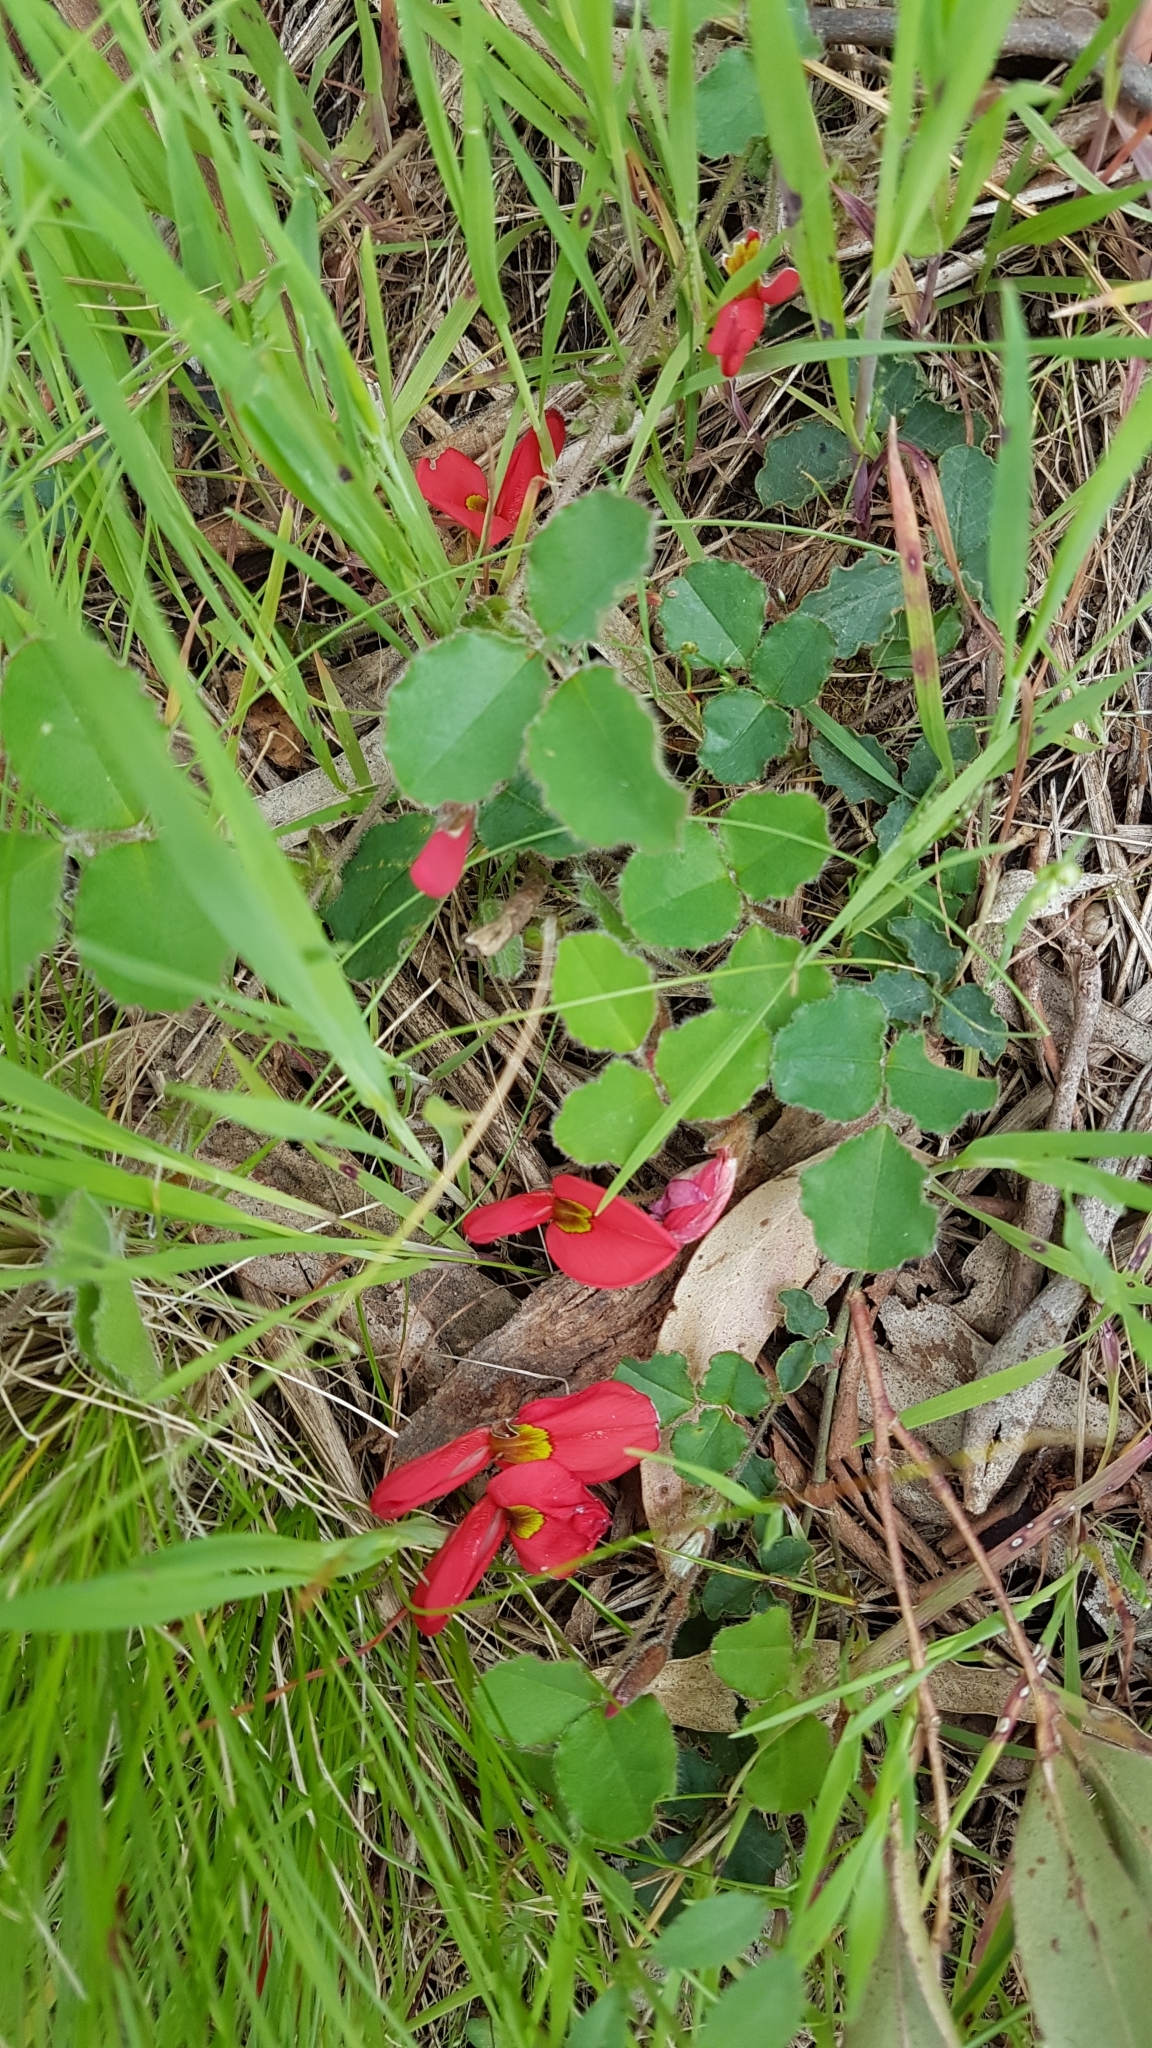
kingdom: Plantae
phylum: Tracheophyta
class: Magnoliopsida
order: Fabales
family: Fabaceae
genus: Kennedia
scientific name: Kennedia prostrata
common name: Running-postman
